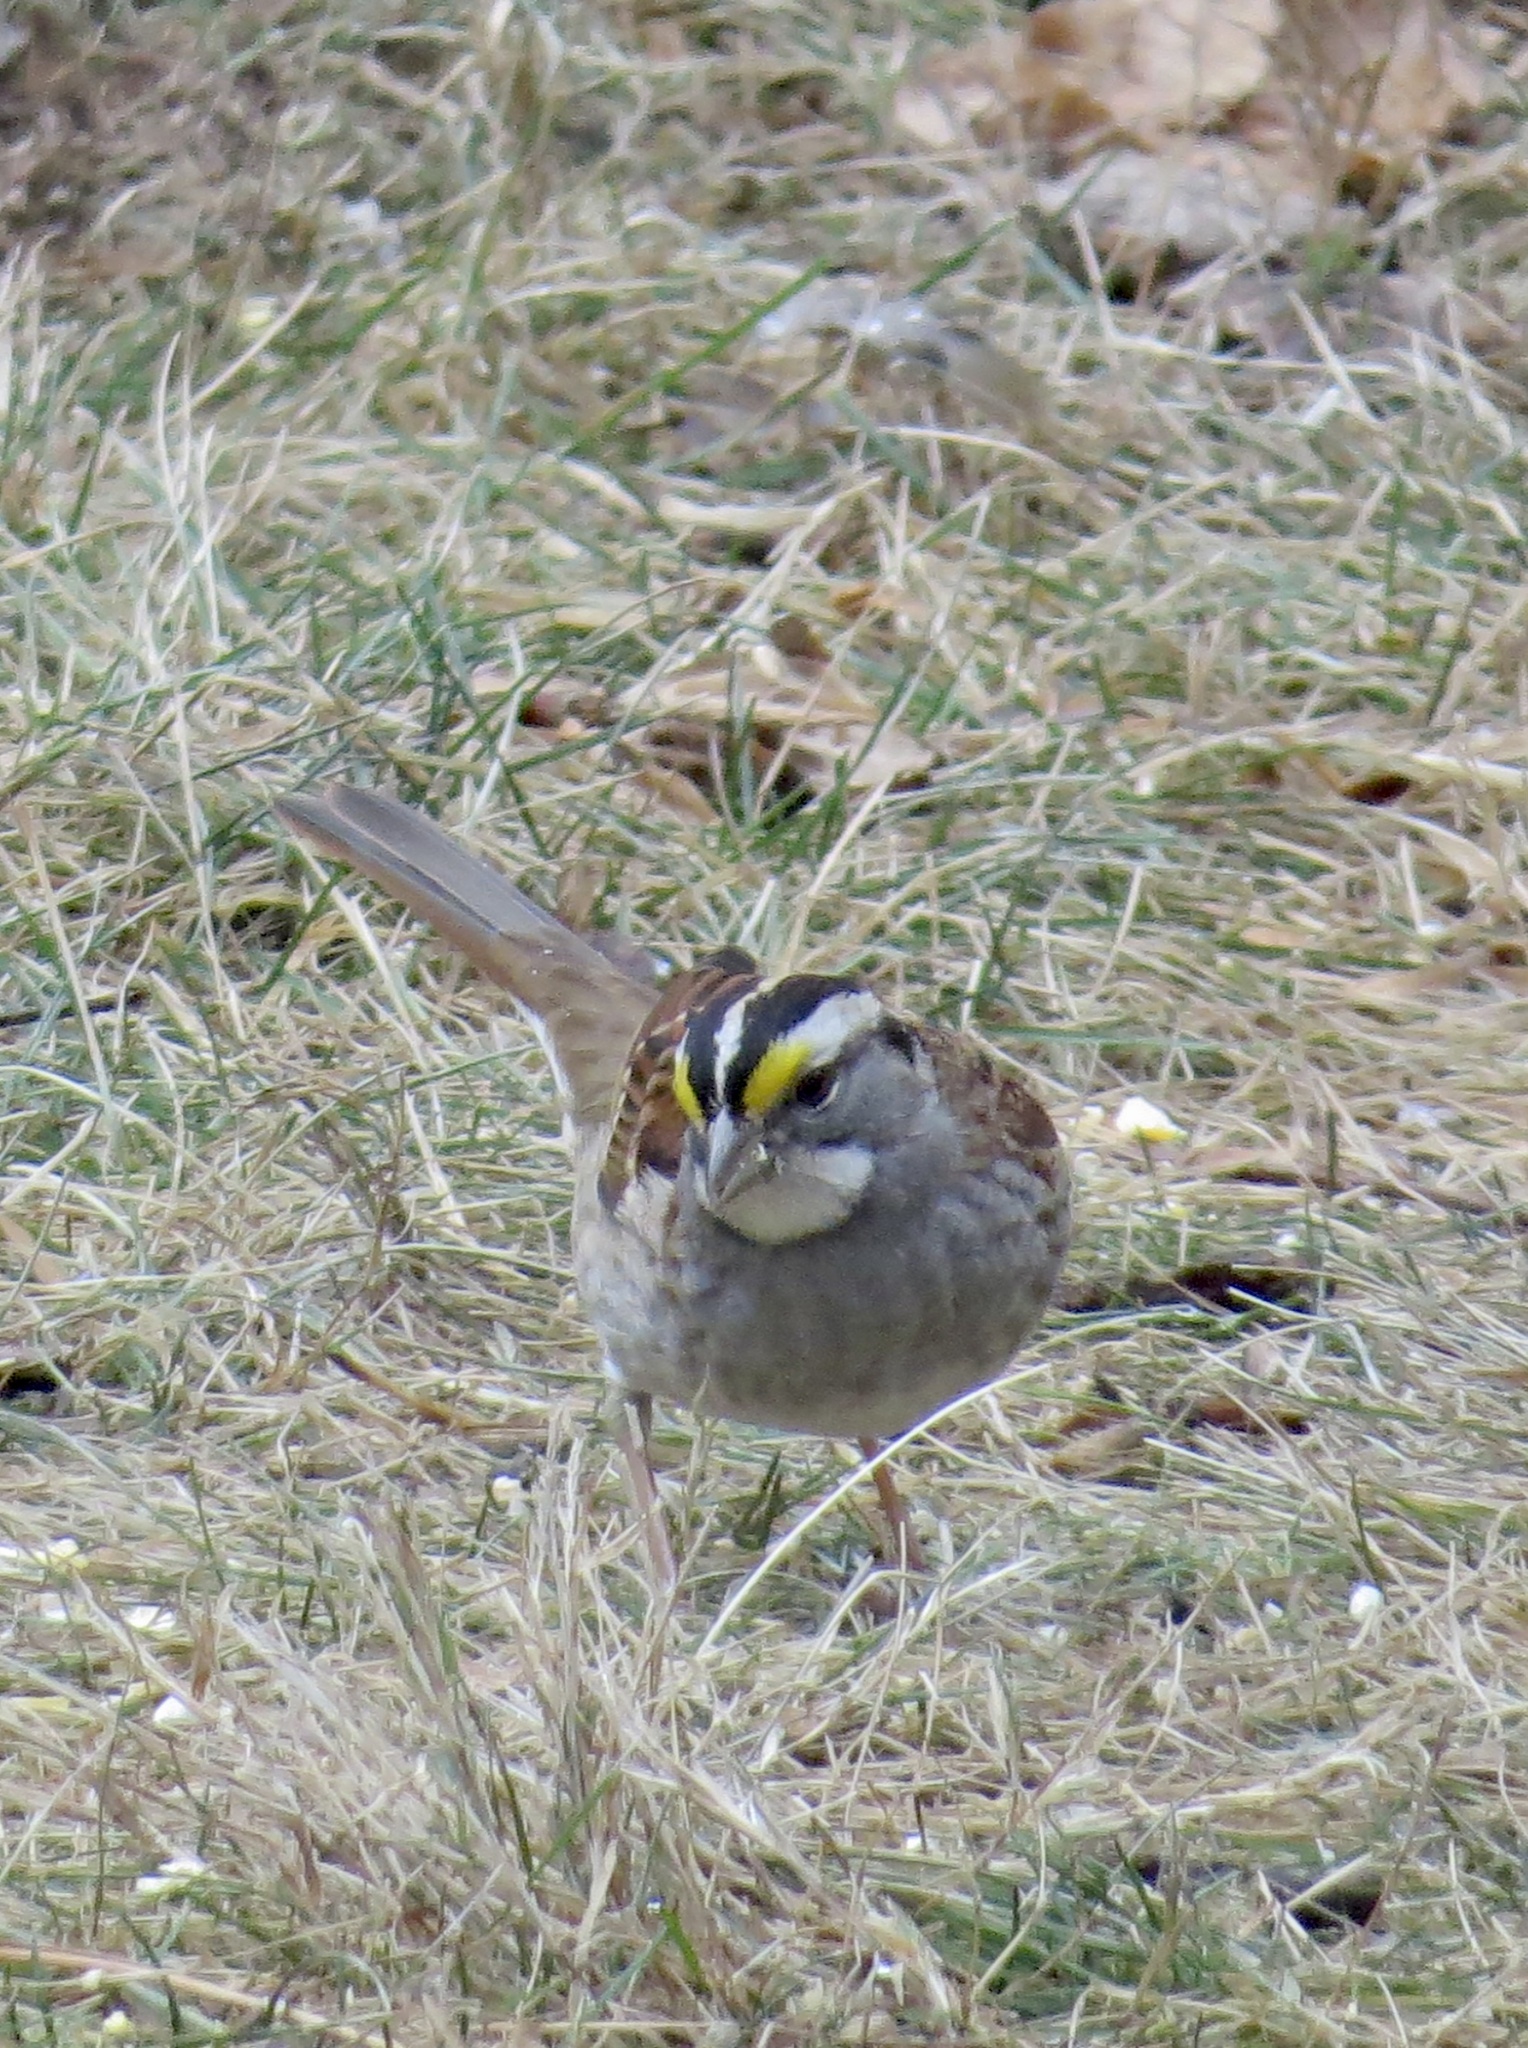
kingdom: Animalia
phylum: Chordata
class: Aves
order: Passeriformes
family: Passerellidae
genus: Zonotrichia
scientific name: Zonotrichia albicollis
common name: White-throated sparrow
